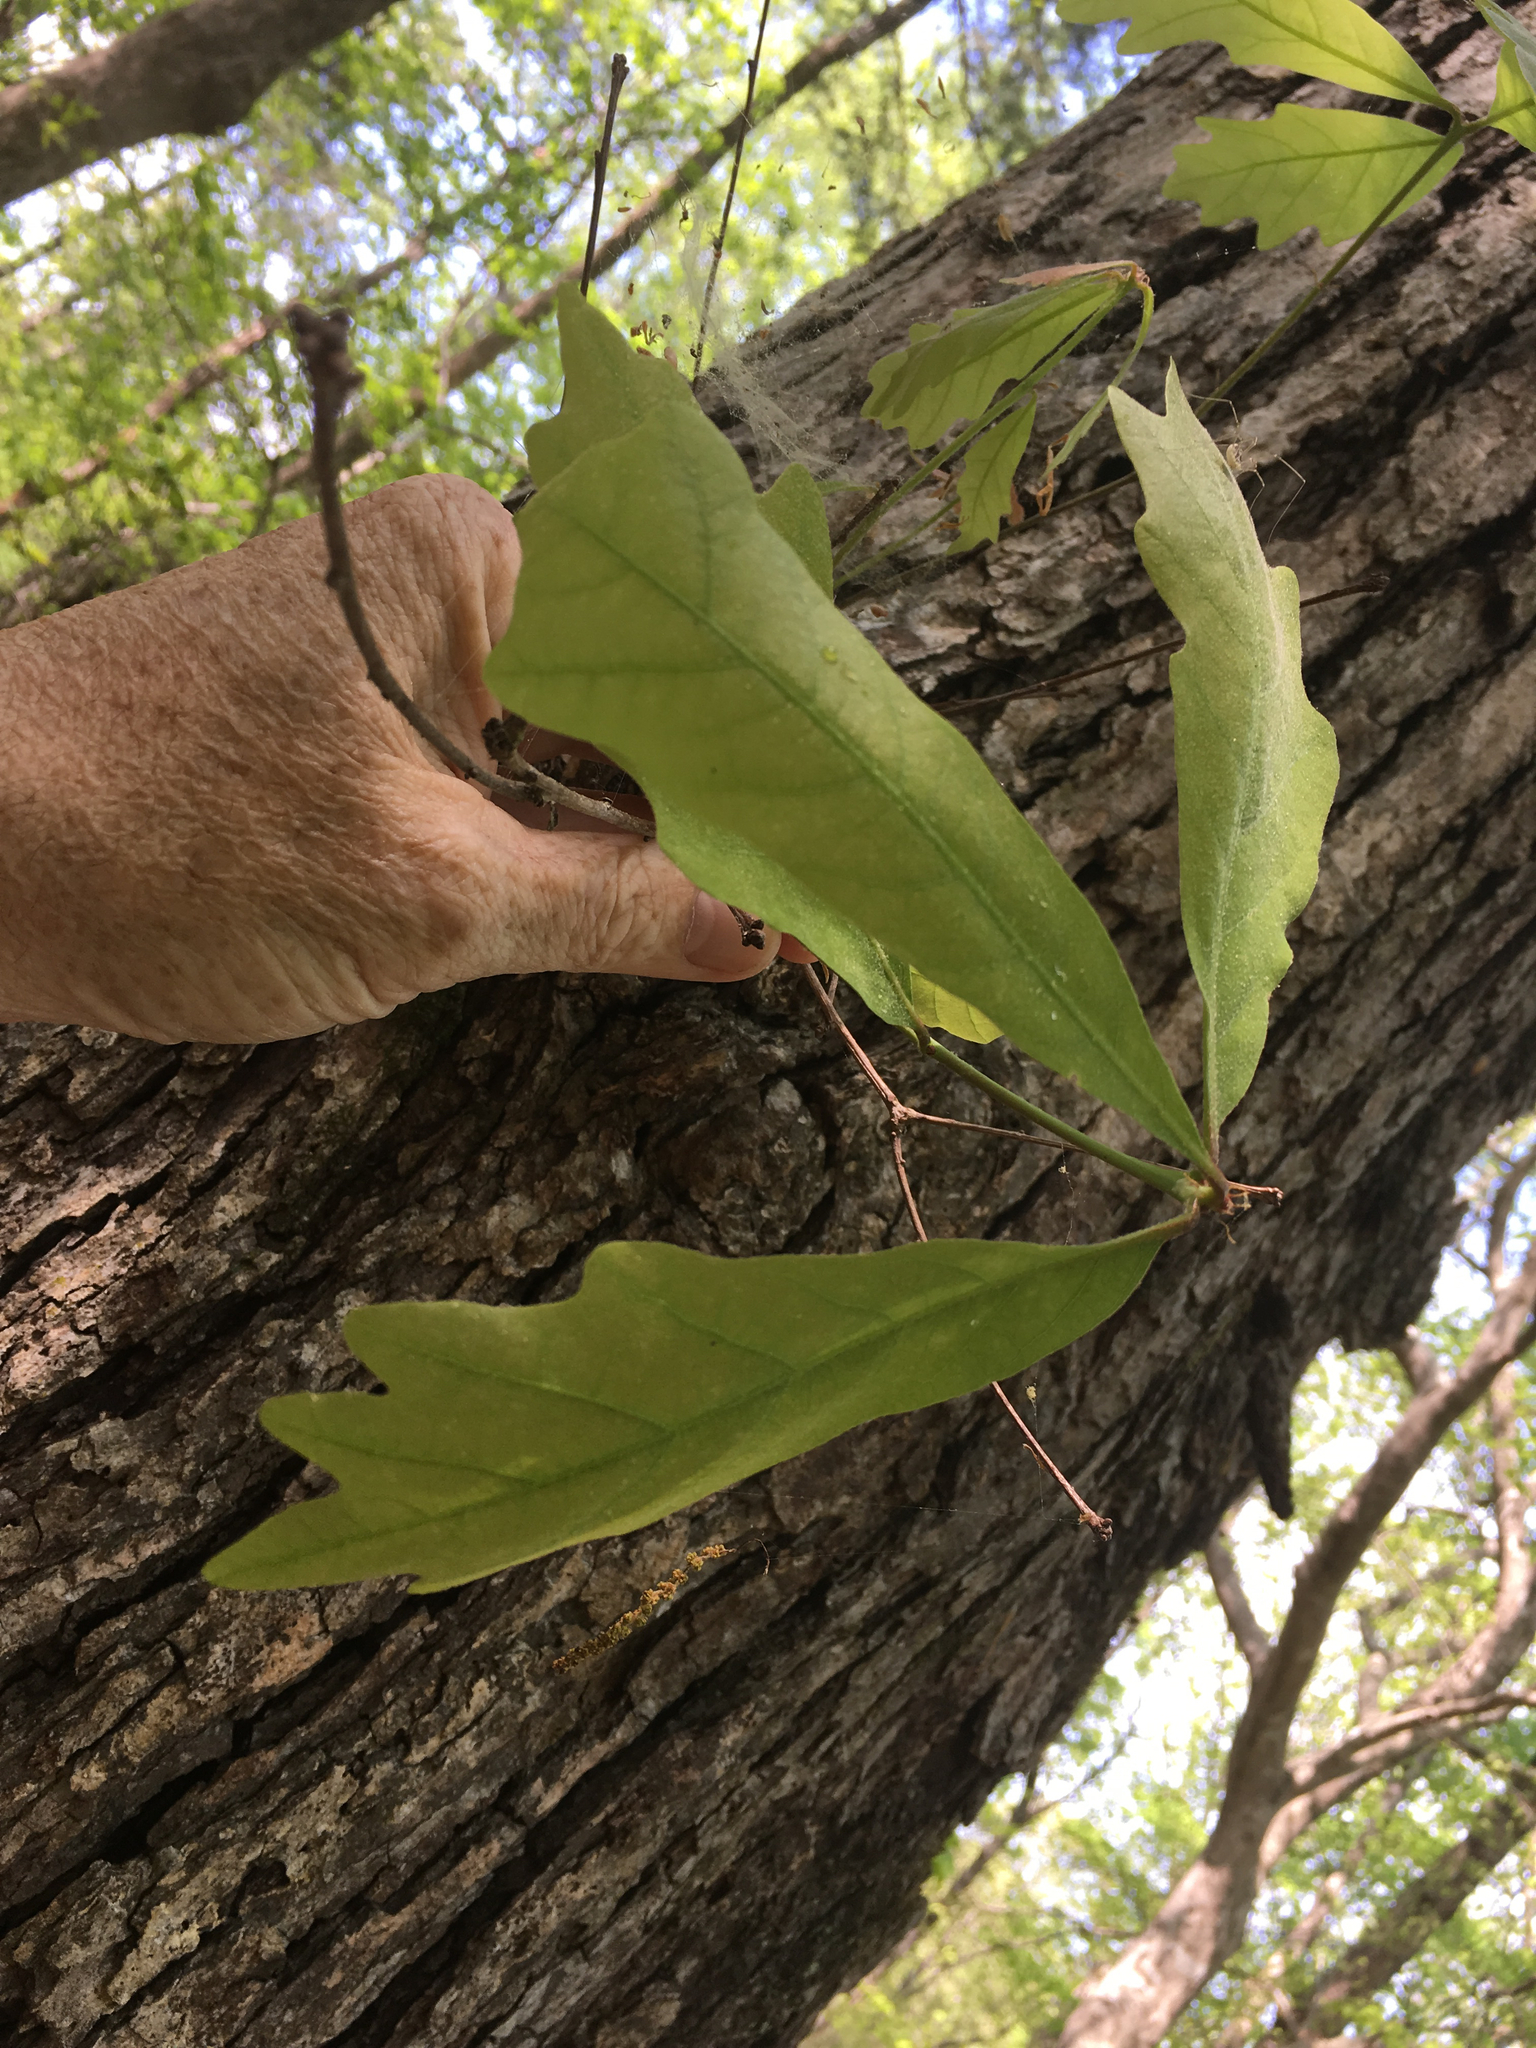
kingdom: Plantae
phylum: Tracheophyta
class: Magnoliopsida
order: Fagales
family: Fagaceae
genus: Quercus
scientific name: Quercus alba
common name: White oak
